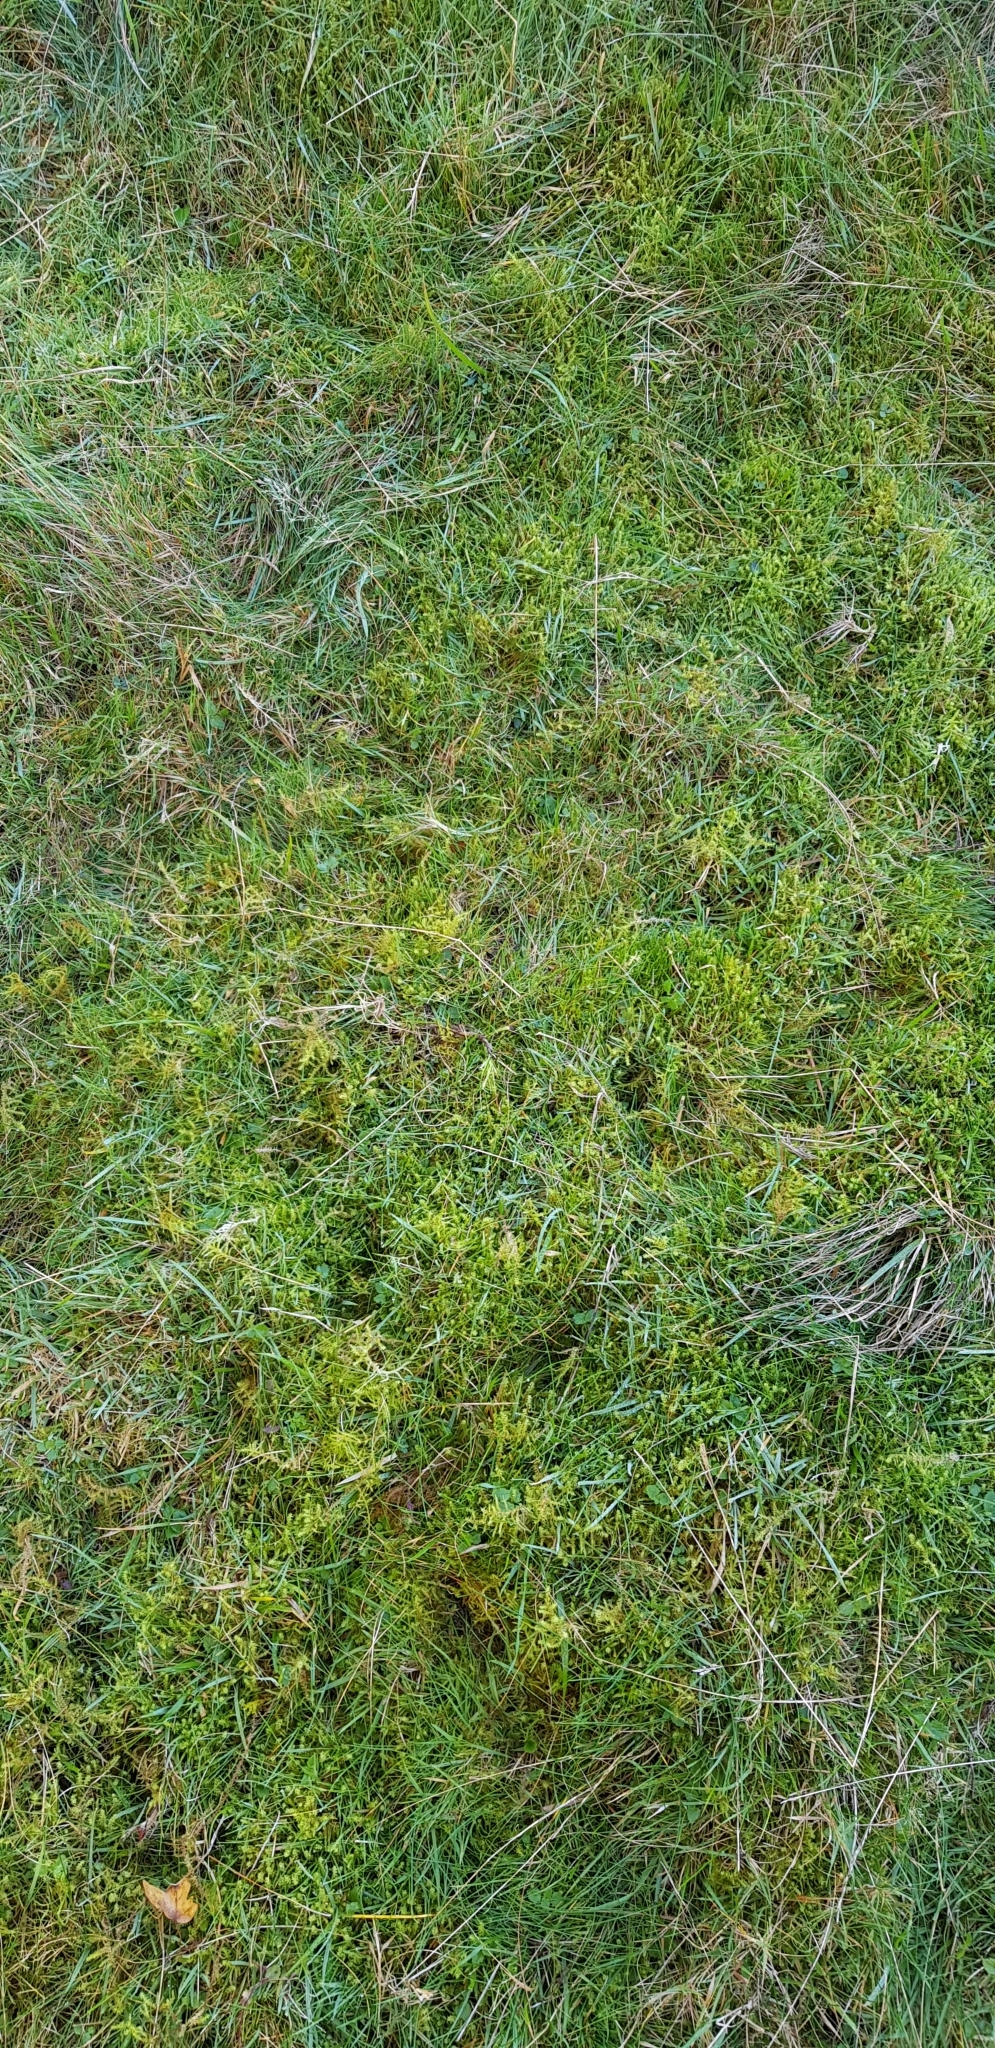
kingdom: Plantae
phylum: Bryophyta
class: Bryopsida
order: Hypnales
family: Hylocomiaceae
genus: Rhytidiadelphus
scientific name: Rhytidiadelphus squarrosus
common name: Springy turf-moss
